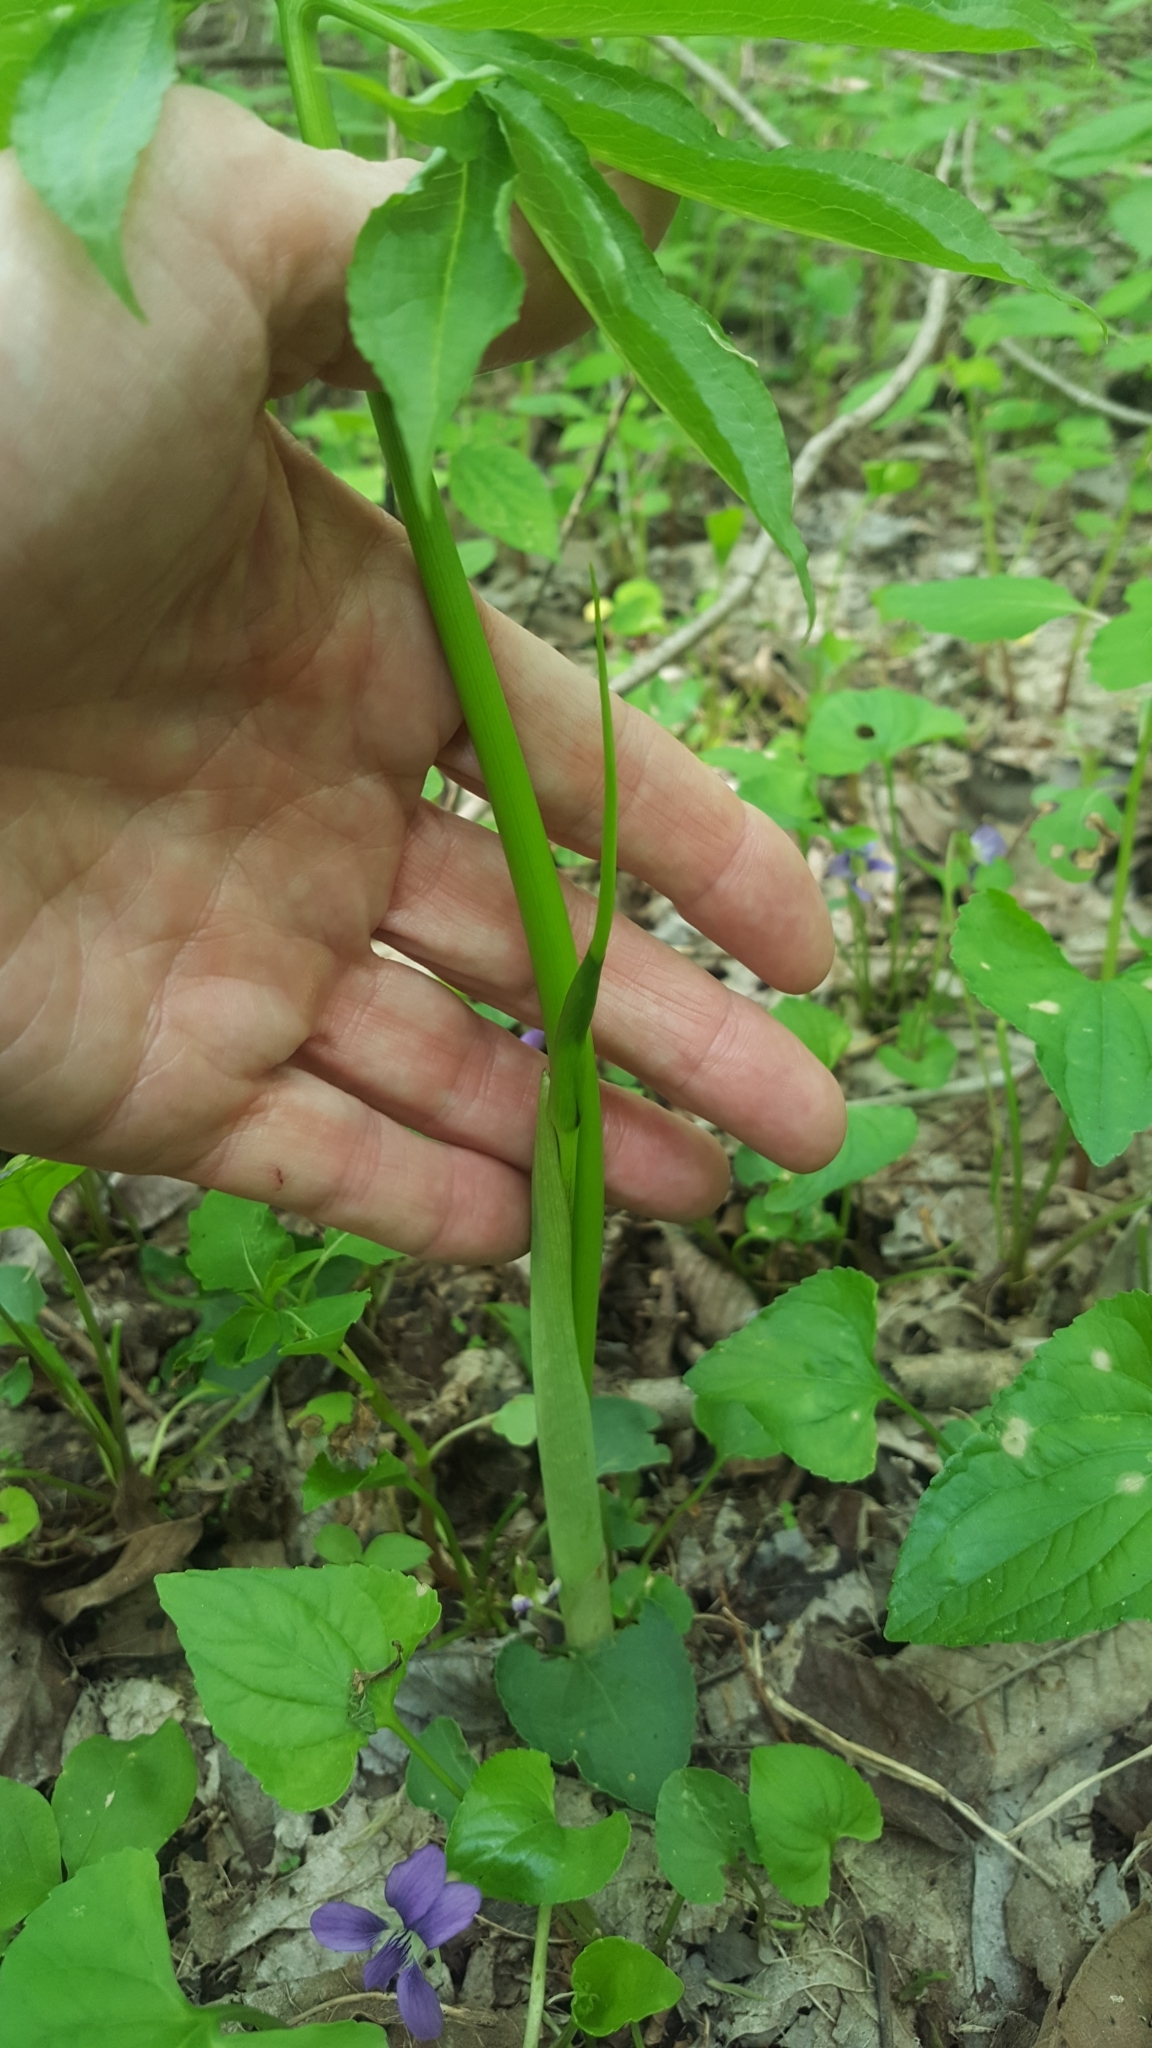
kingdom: Plantae
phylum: Tracheophyta
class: Liliopsida
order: Alismatales
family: Araceae
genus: Arisaema
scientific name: Arisaema dracontium
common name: Dragon-arum
